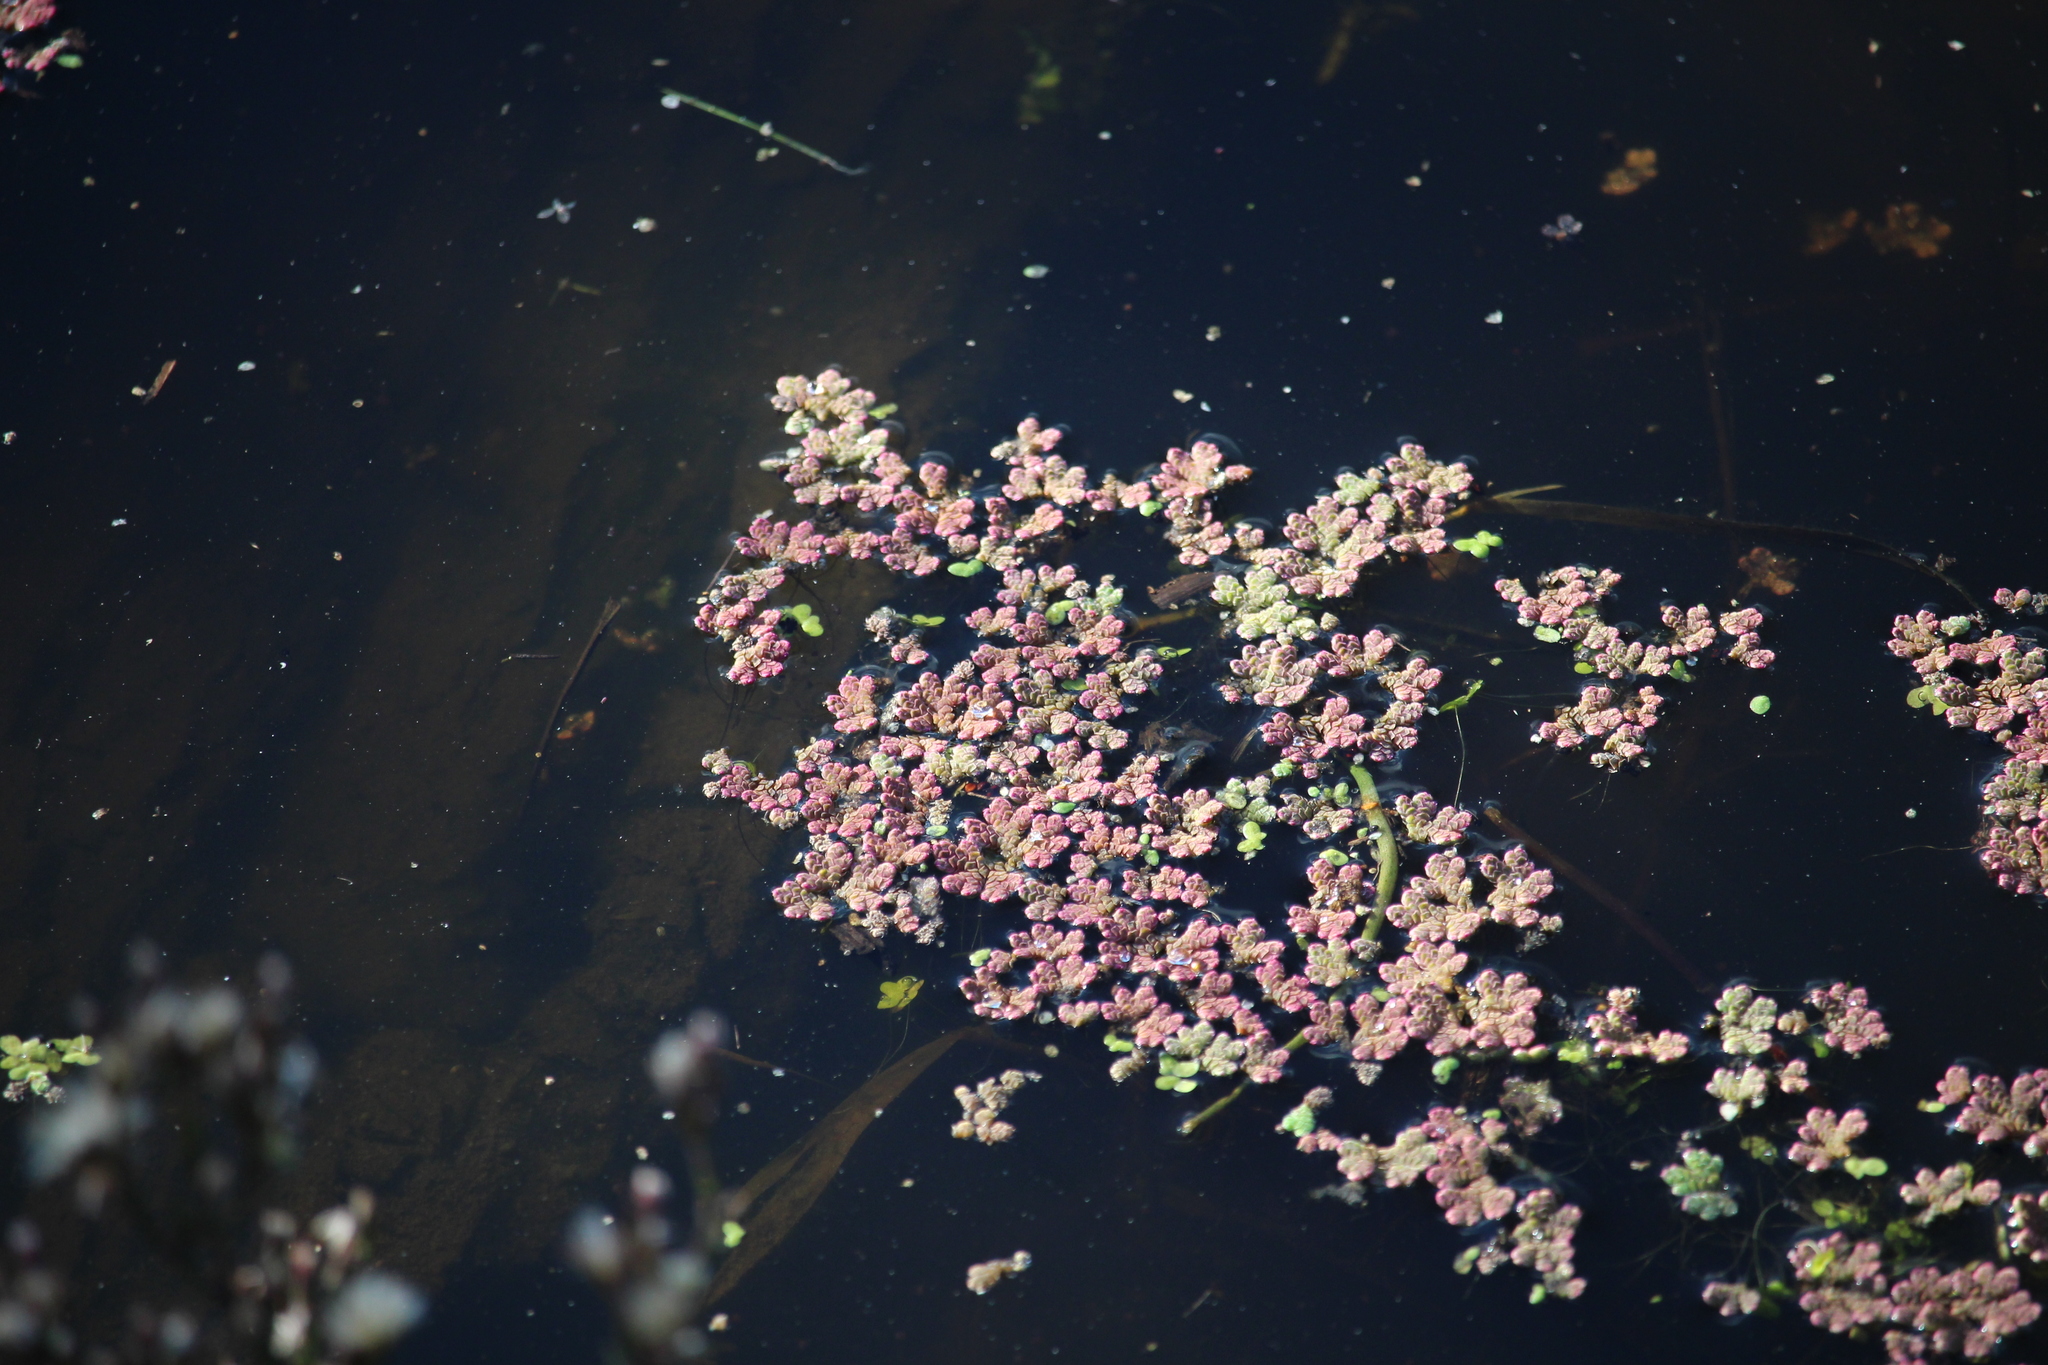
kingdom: Plantae
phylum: Tracheophyta
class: Polypodiopsida
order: Salviniales
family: Salviniaceae
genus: Azolla
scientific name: Azolla rubra
